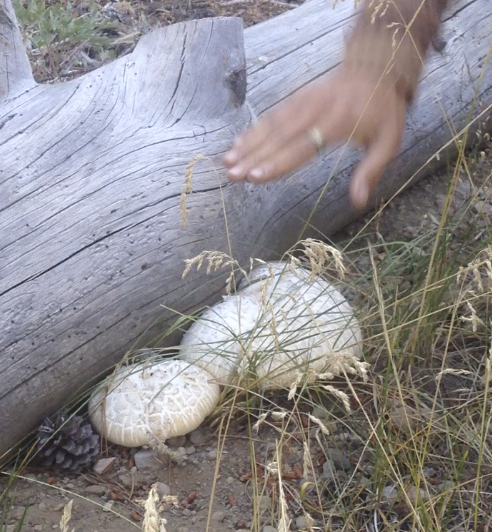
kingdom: Fungi
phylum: Basidiomycota
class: Agaricomycetes
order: Gloeophyllales
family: Gloeophyllaceae
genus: Neolentinus
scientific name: Neolentinus ponderosus
